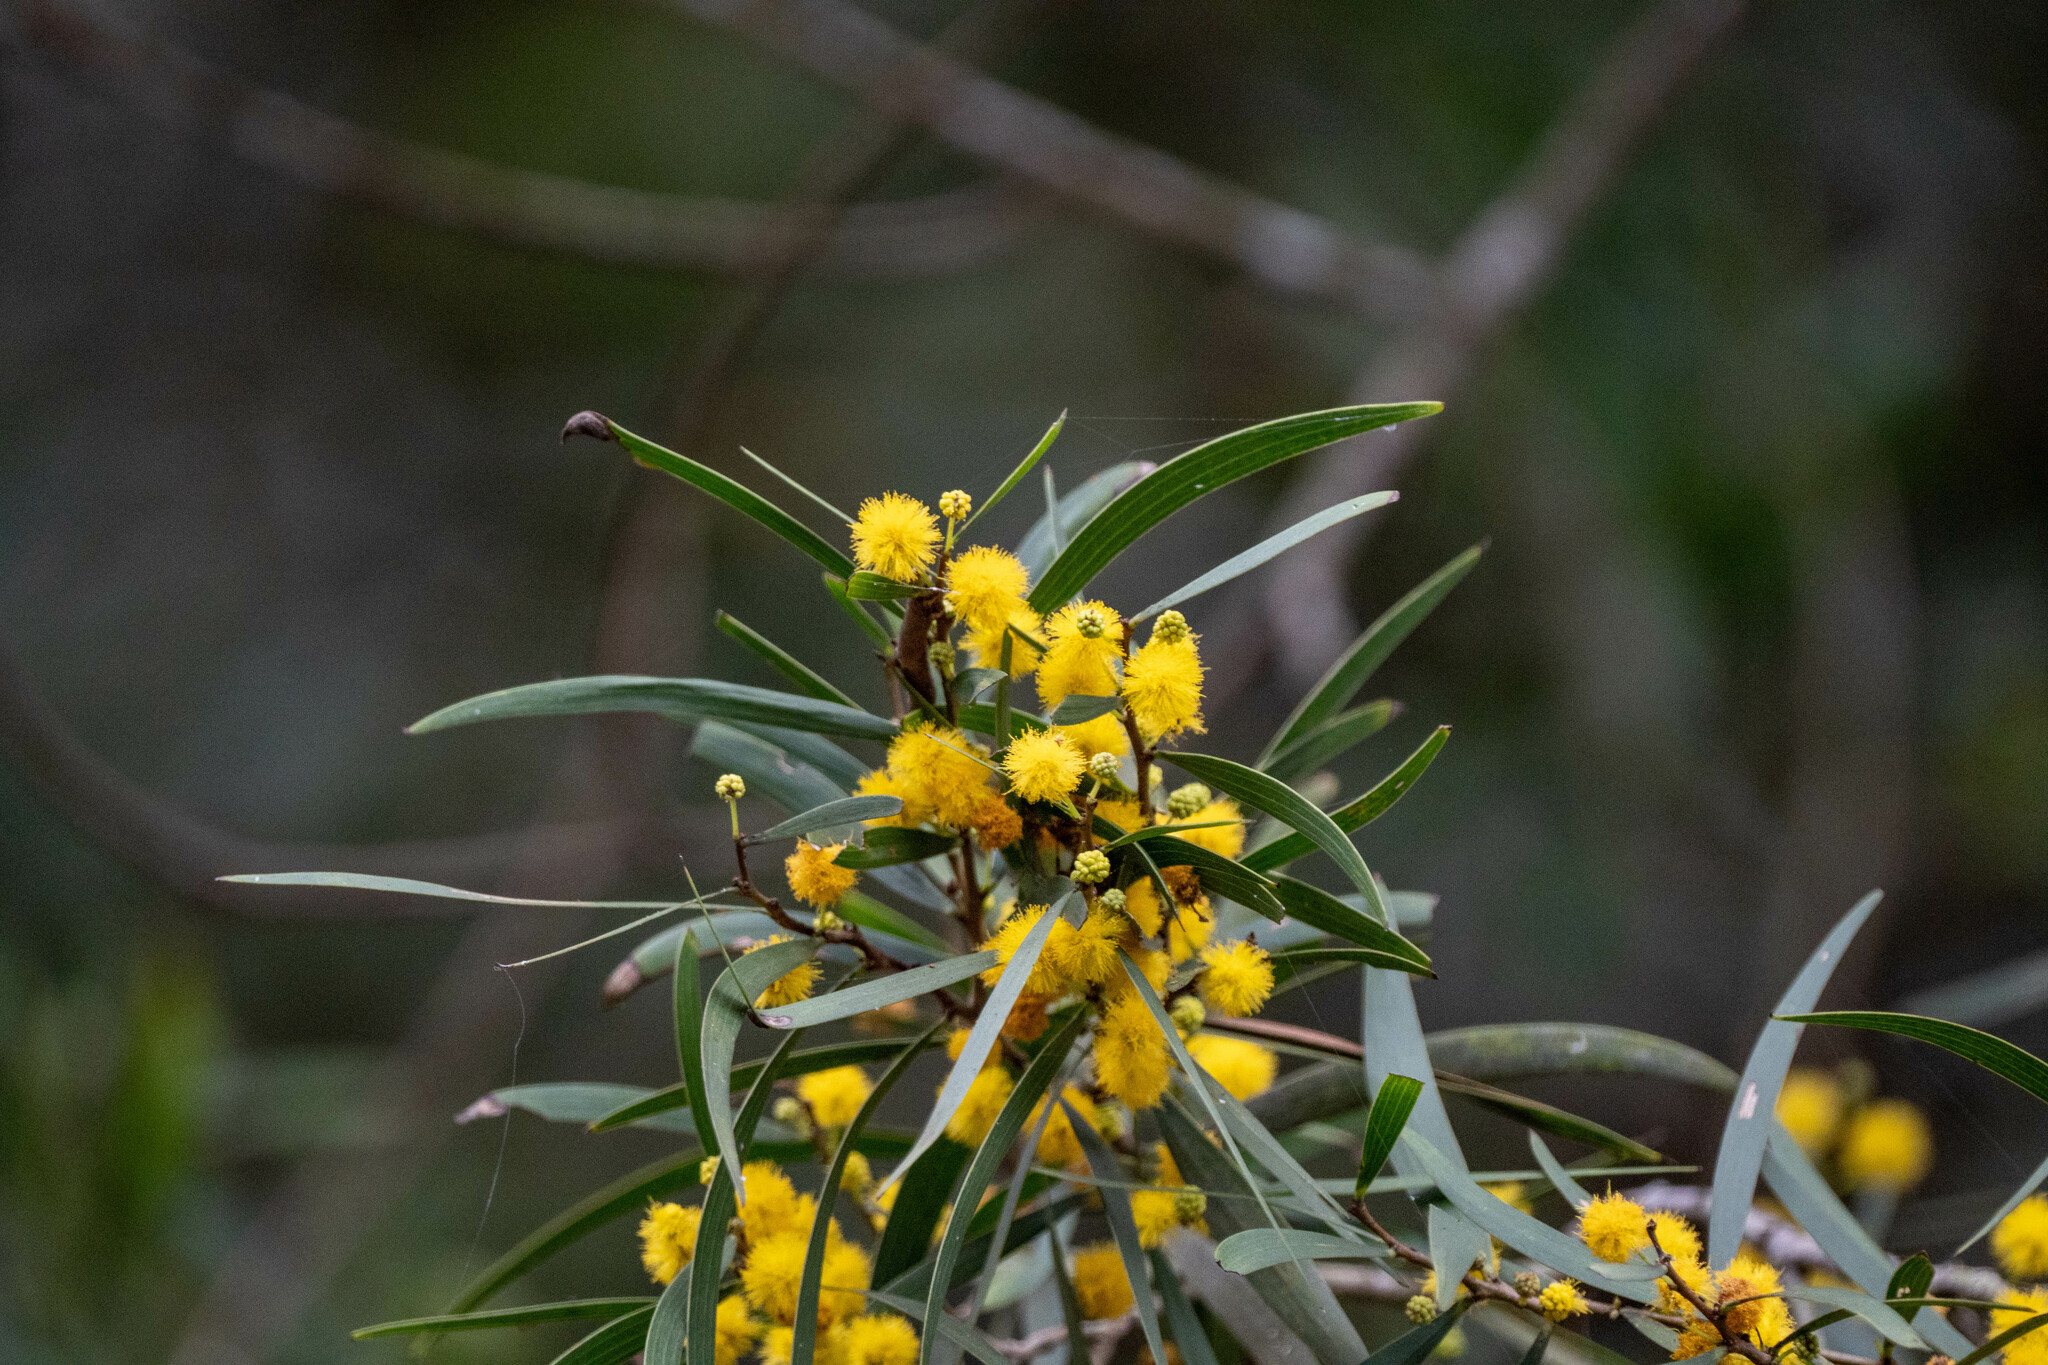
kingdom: Plantae
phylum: Tracheophyta
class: Magnoliopsida
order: Fabales
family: Fabaceae
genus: Acacia
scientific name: Acacia confusa
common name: Formosan koa
